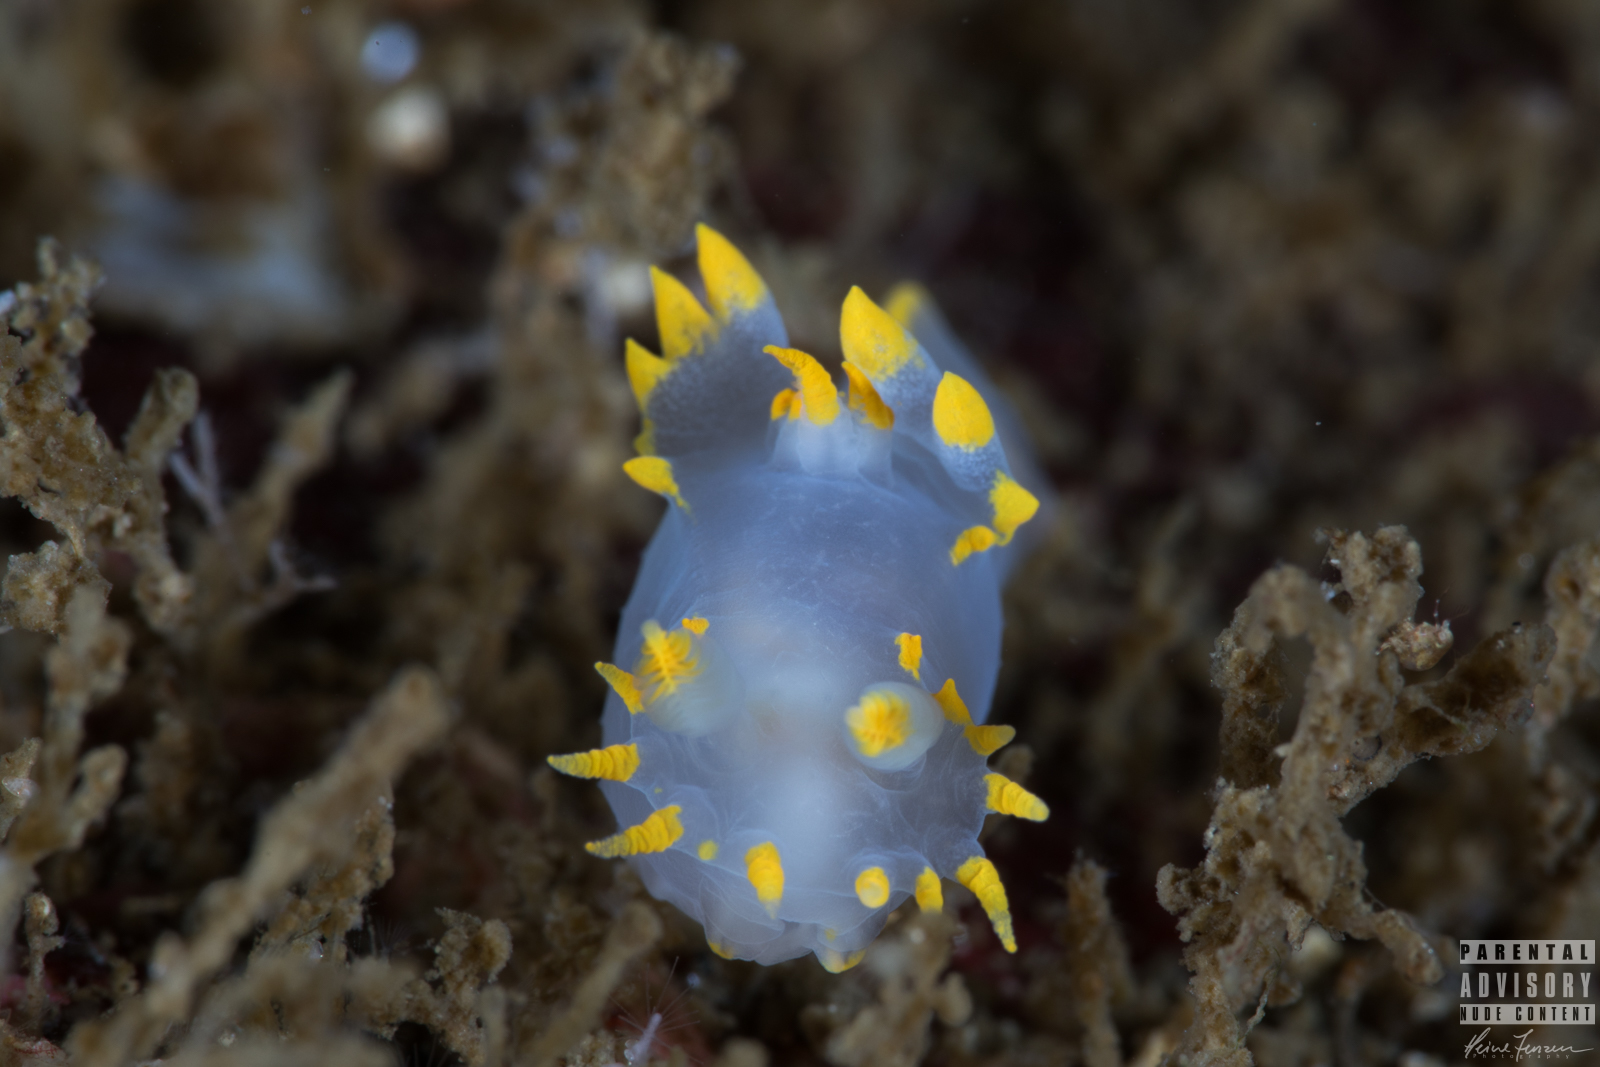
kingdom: Animalia
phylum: Mollusca
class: Gastropoda
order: Nudibranchia
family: Polyceridae
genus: Polycera
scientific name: Polycera faeroensis
